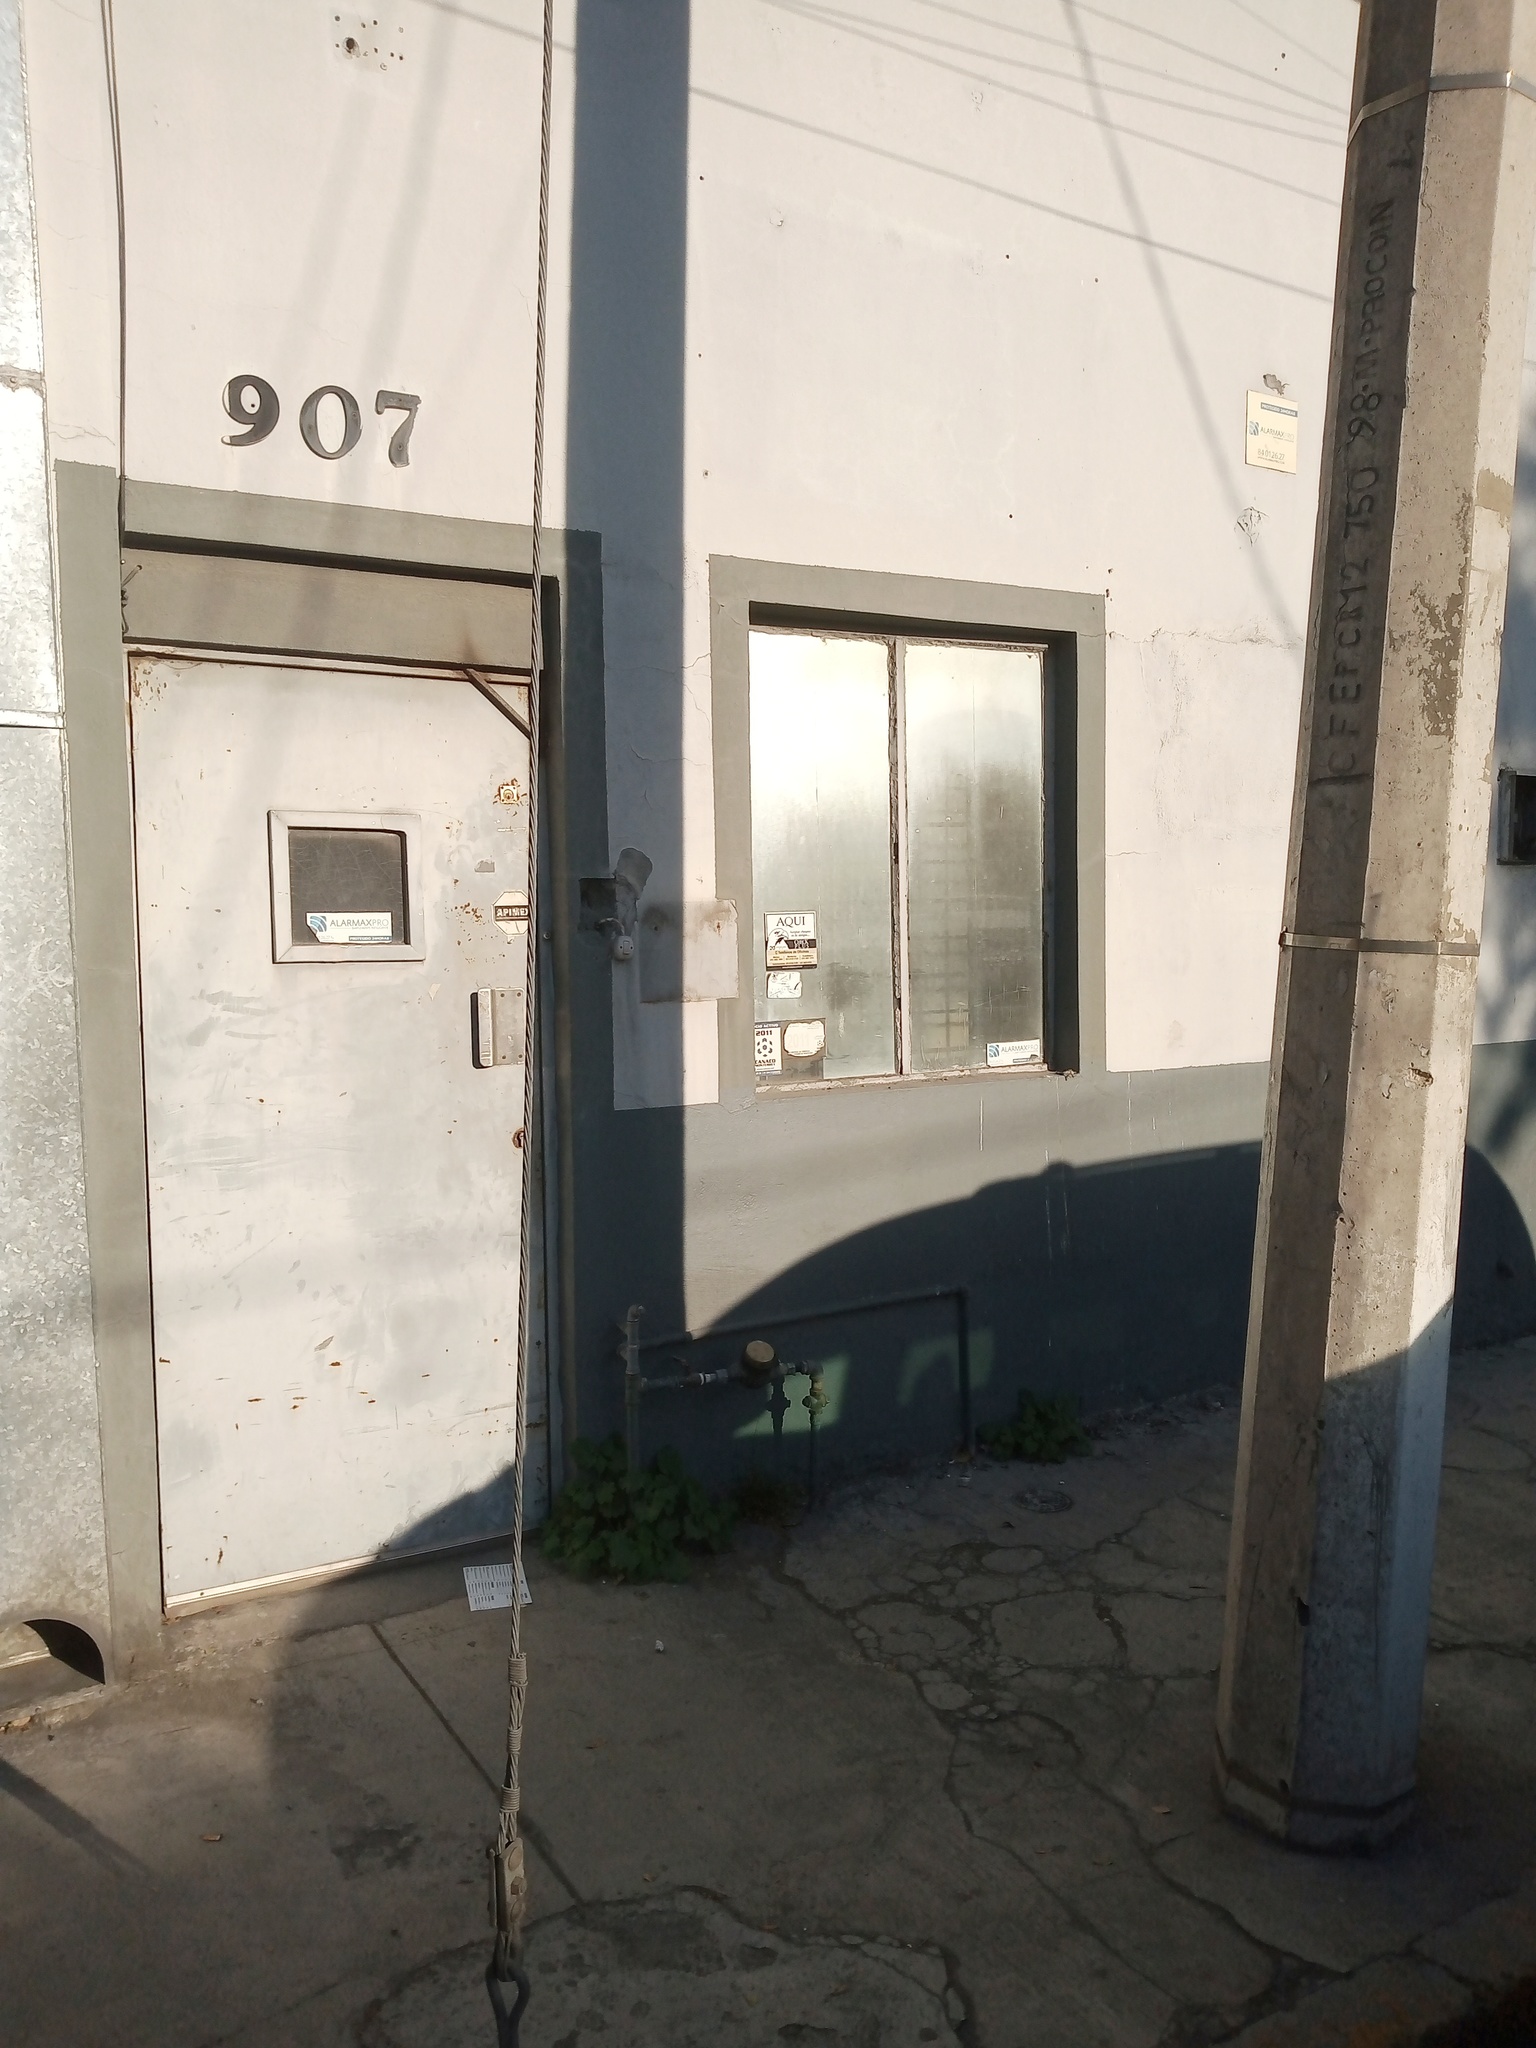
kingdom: Plantae
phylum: Tracheophyta
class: Magnoliopsida
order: Cornales
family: Loasaceae
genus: Eucnide
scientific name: Eucnide lobata
